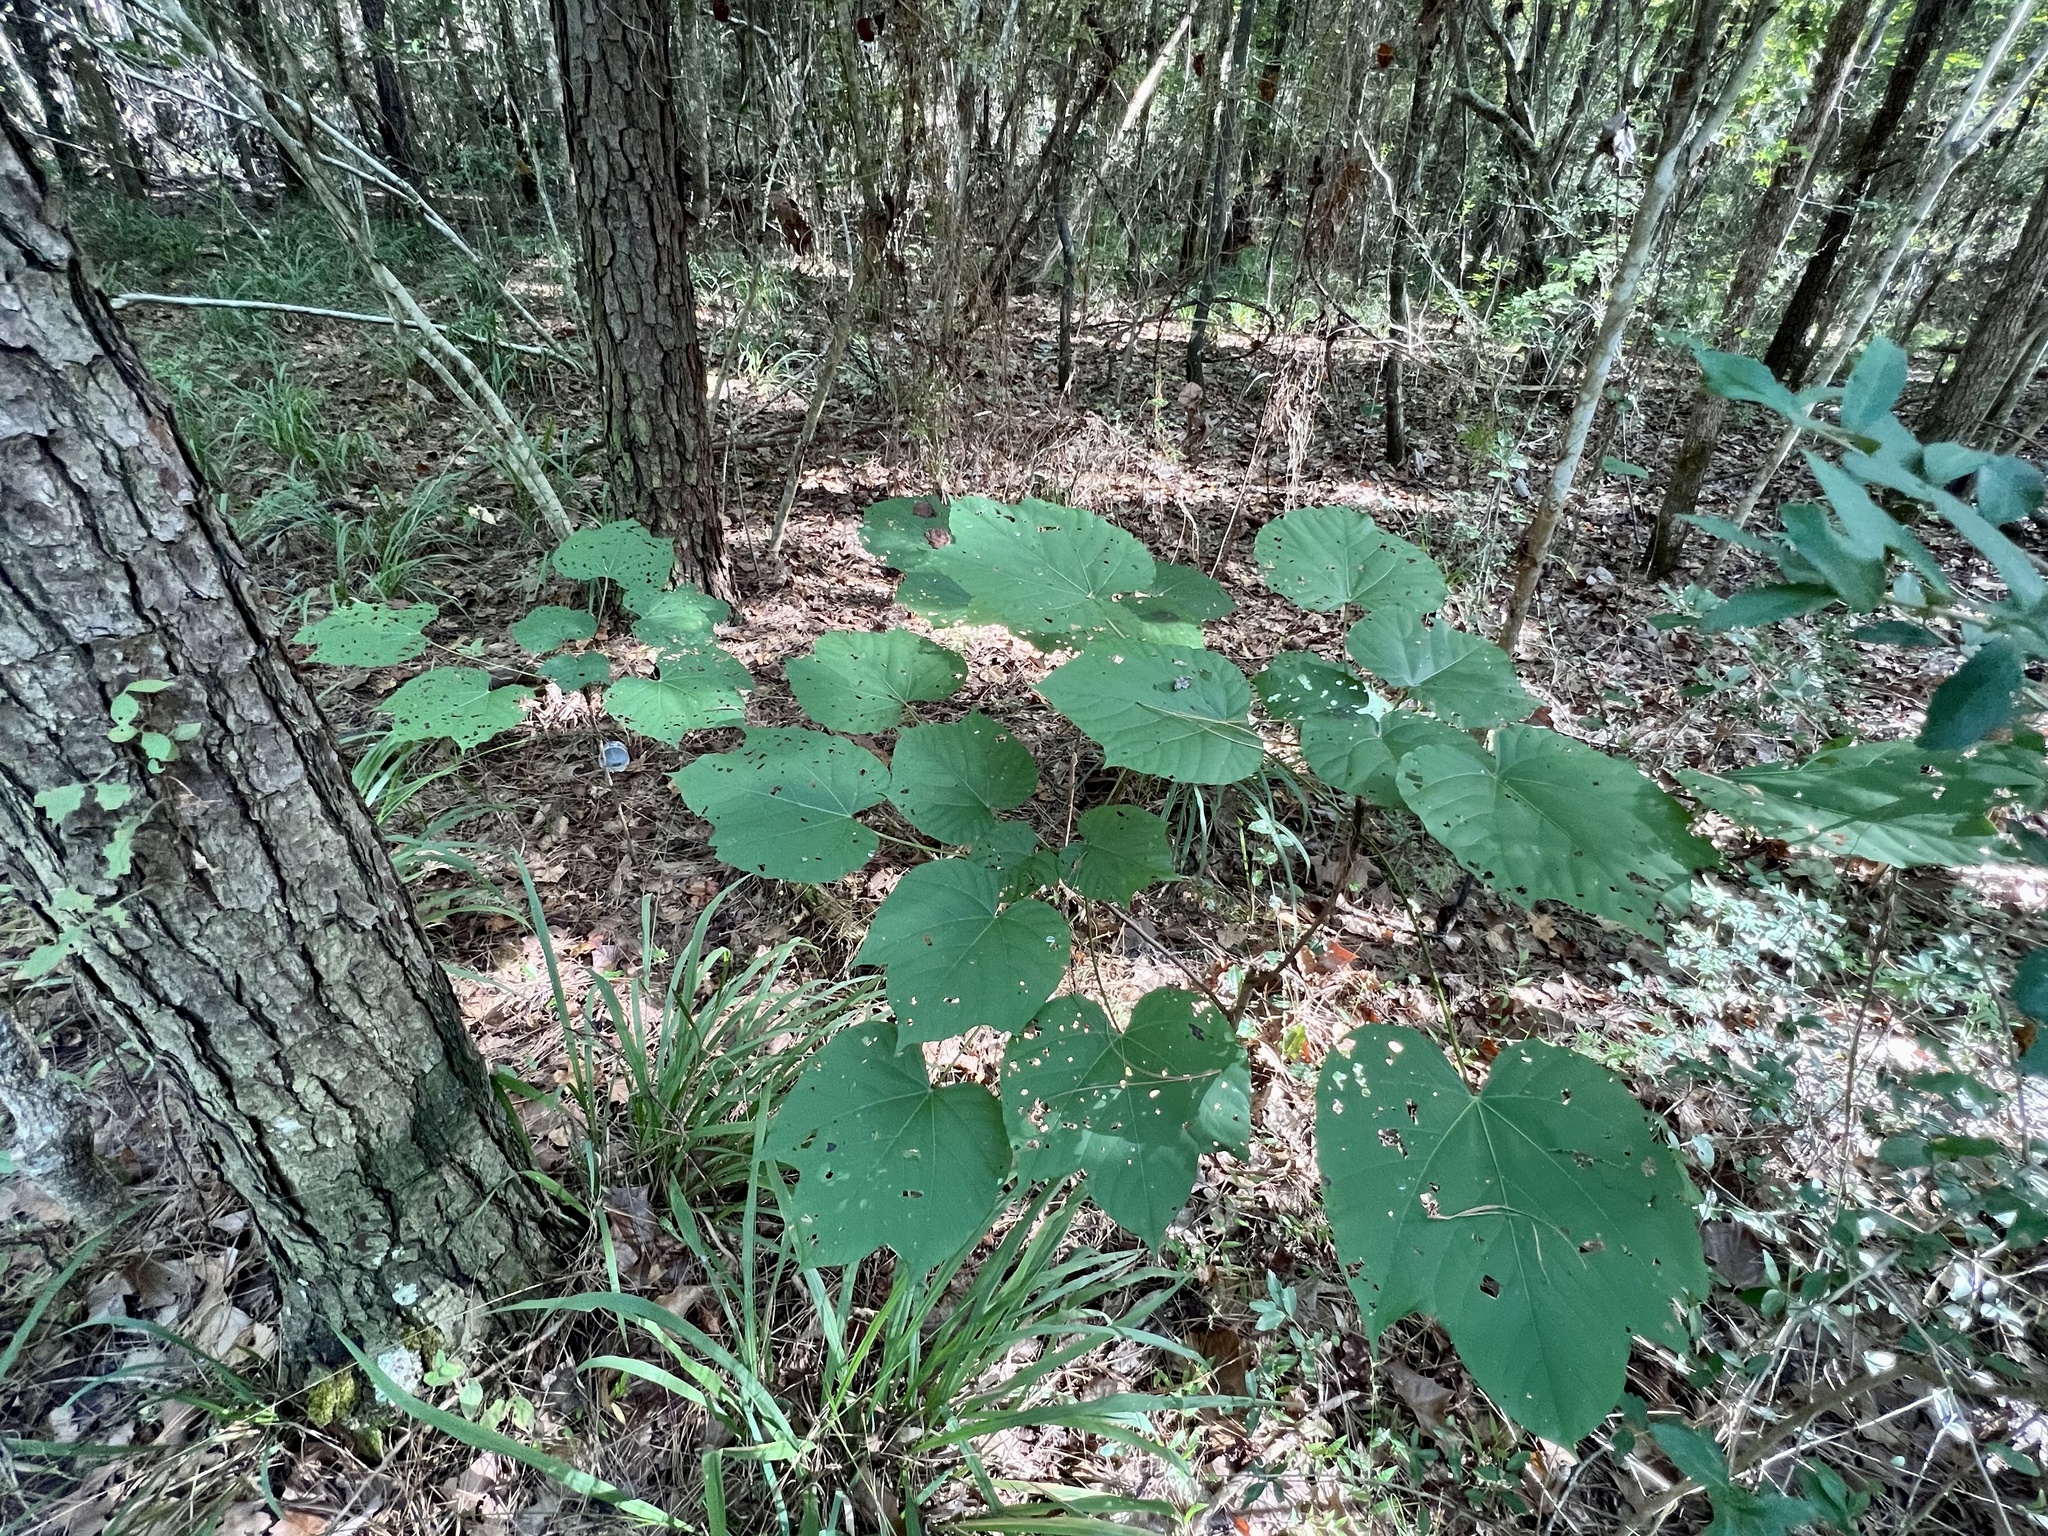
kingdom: Plantae
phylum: Tracheophyta
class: Magnoliopsida
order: Malpighiales
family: Euphorbiaceae
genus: Vernicia
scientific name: Vernicia fordii
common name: Tungoil tree
